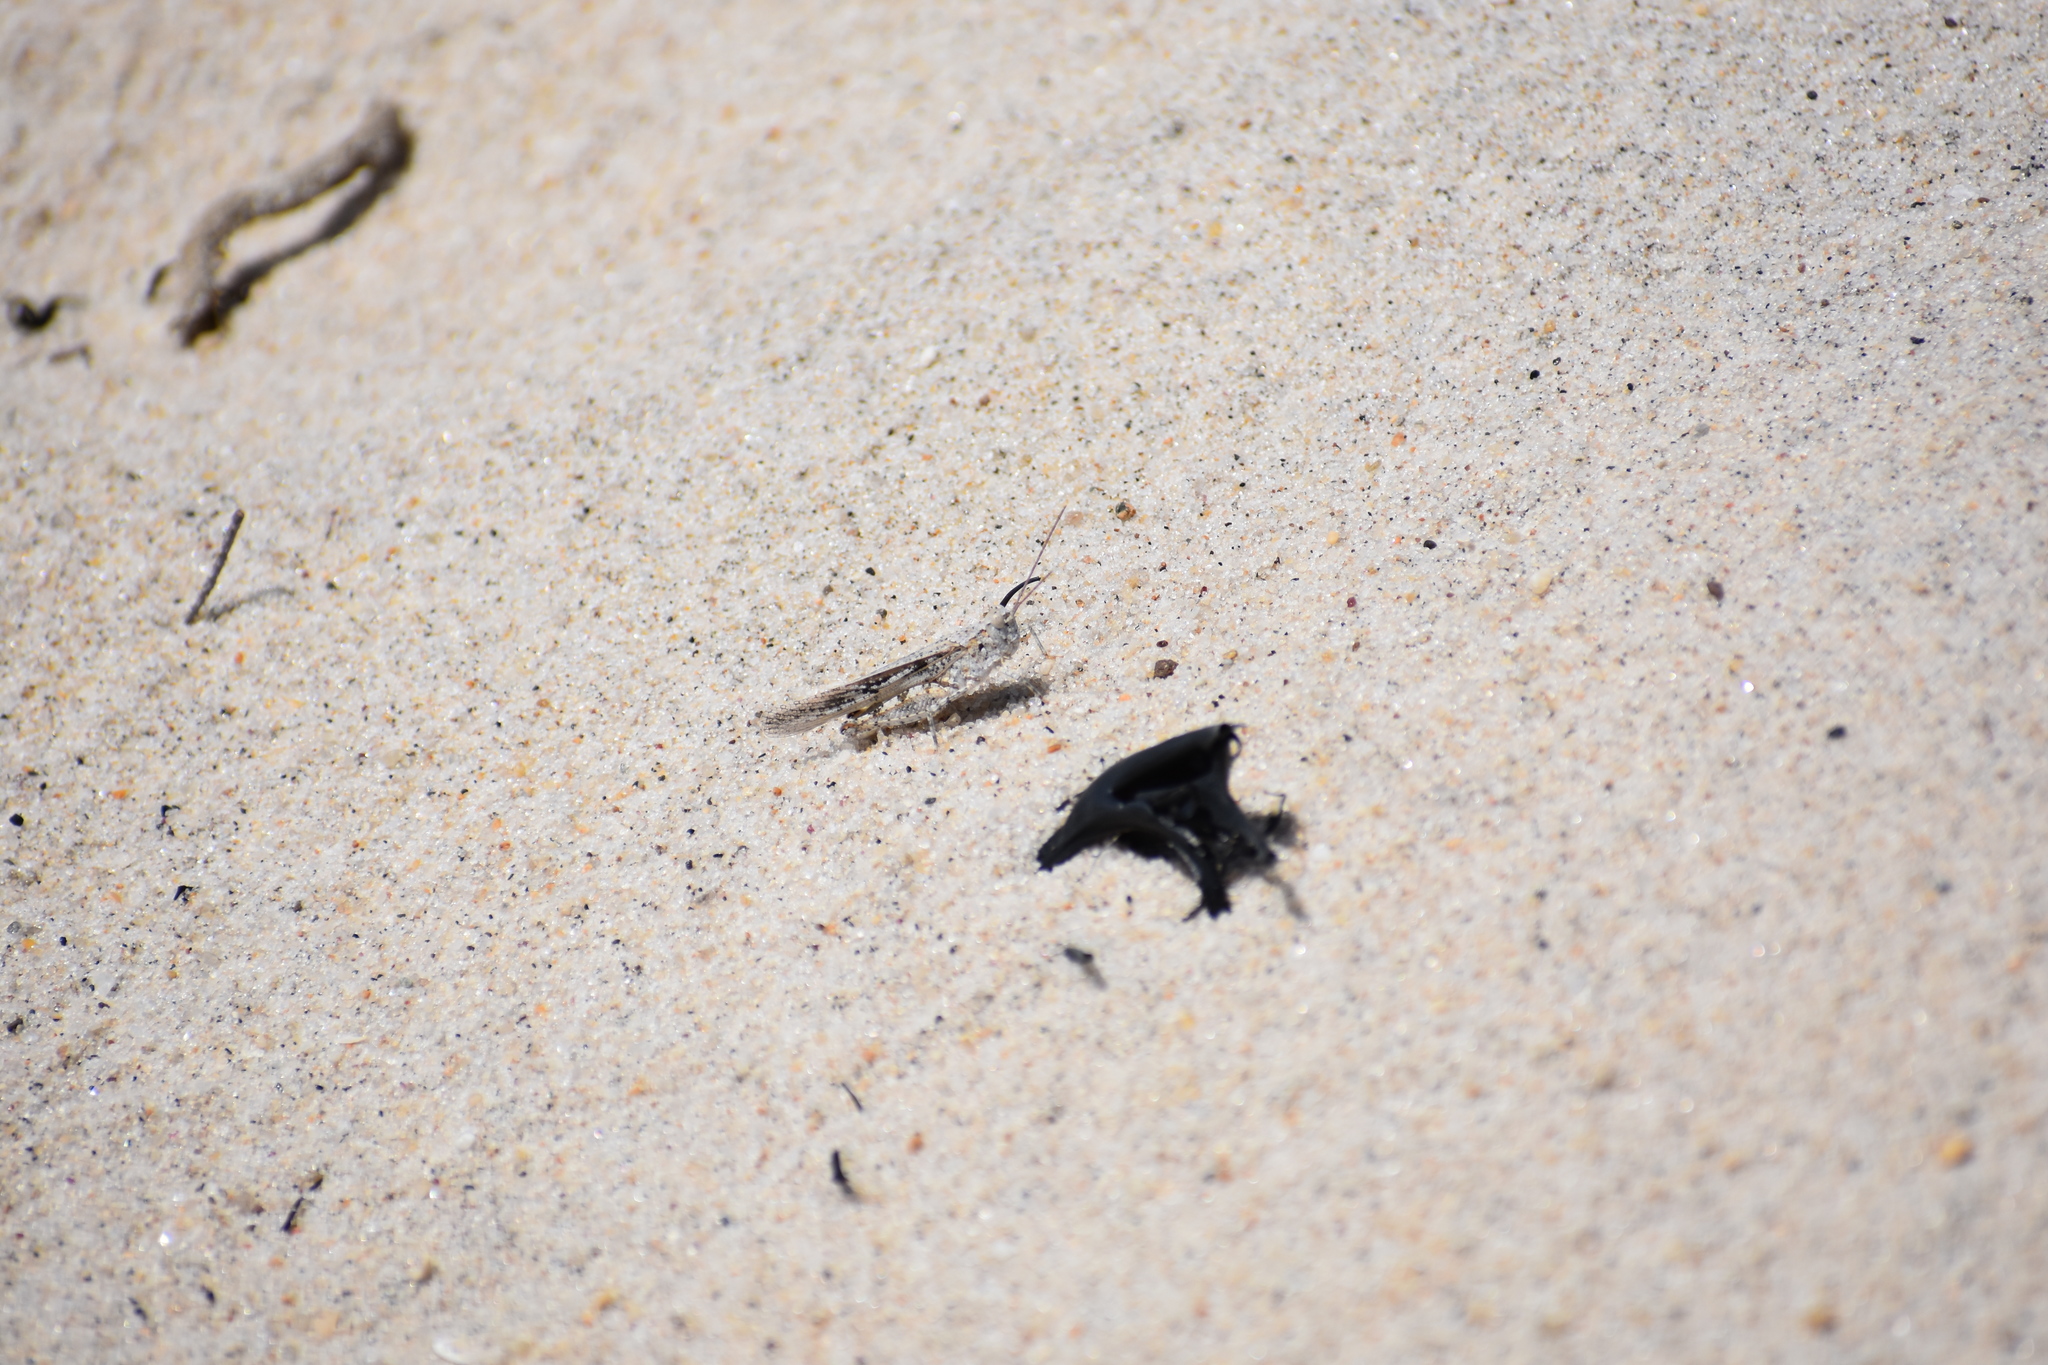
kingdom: Animalia
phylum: Arthropoda
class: Insecta
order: Orthoptera
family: Acrididae
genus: Trimerotropis
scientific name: Trimerotropis maritima
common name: Seaside locust
